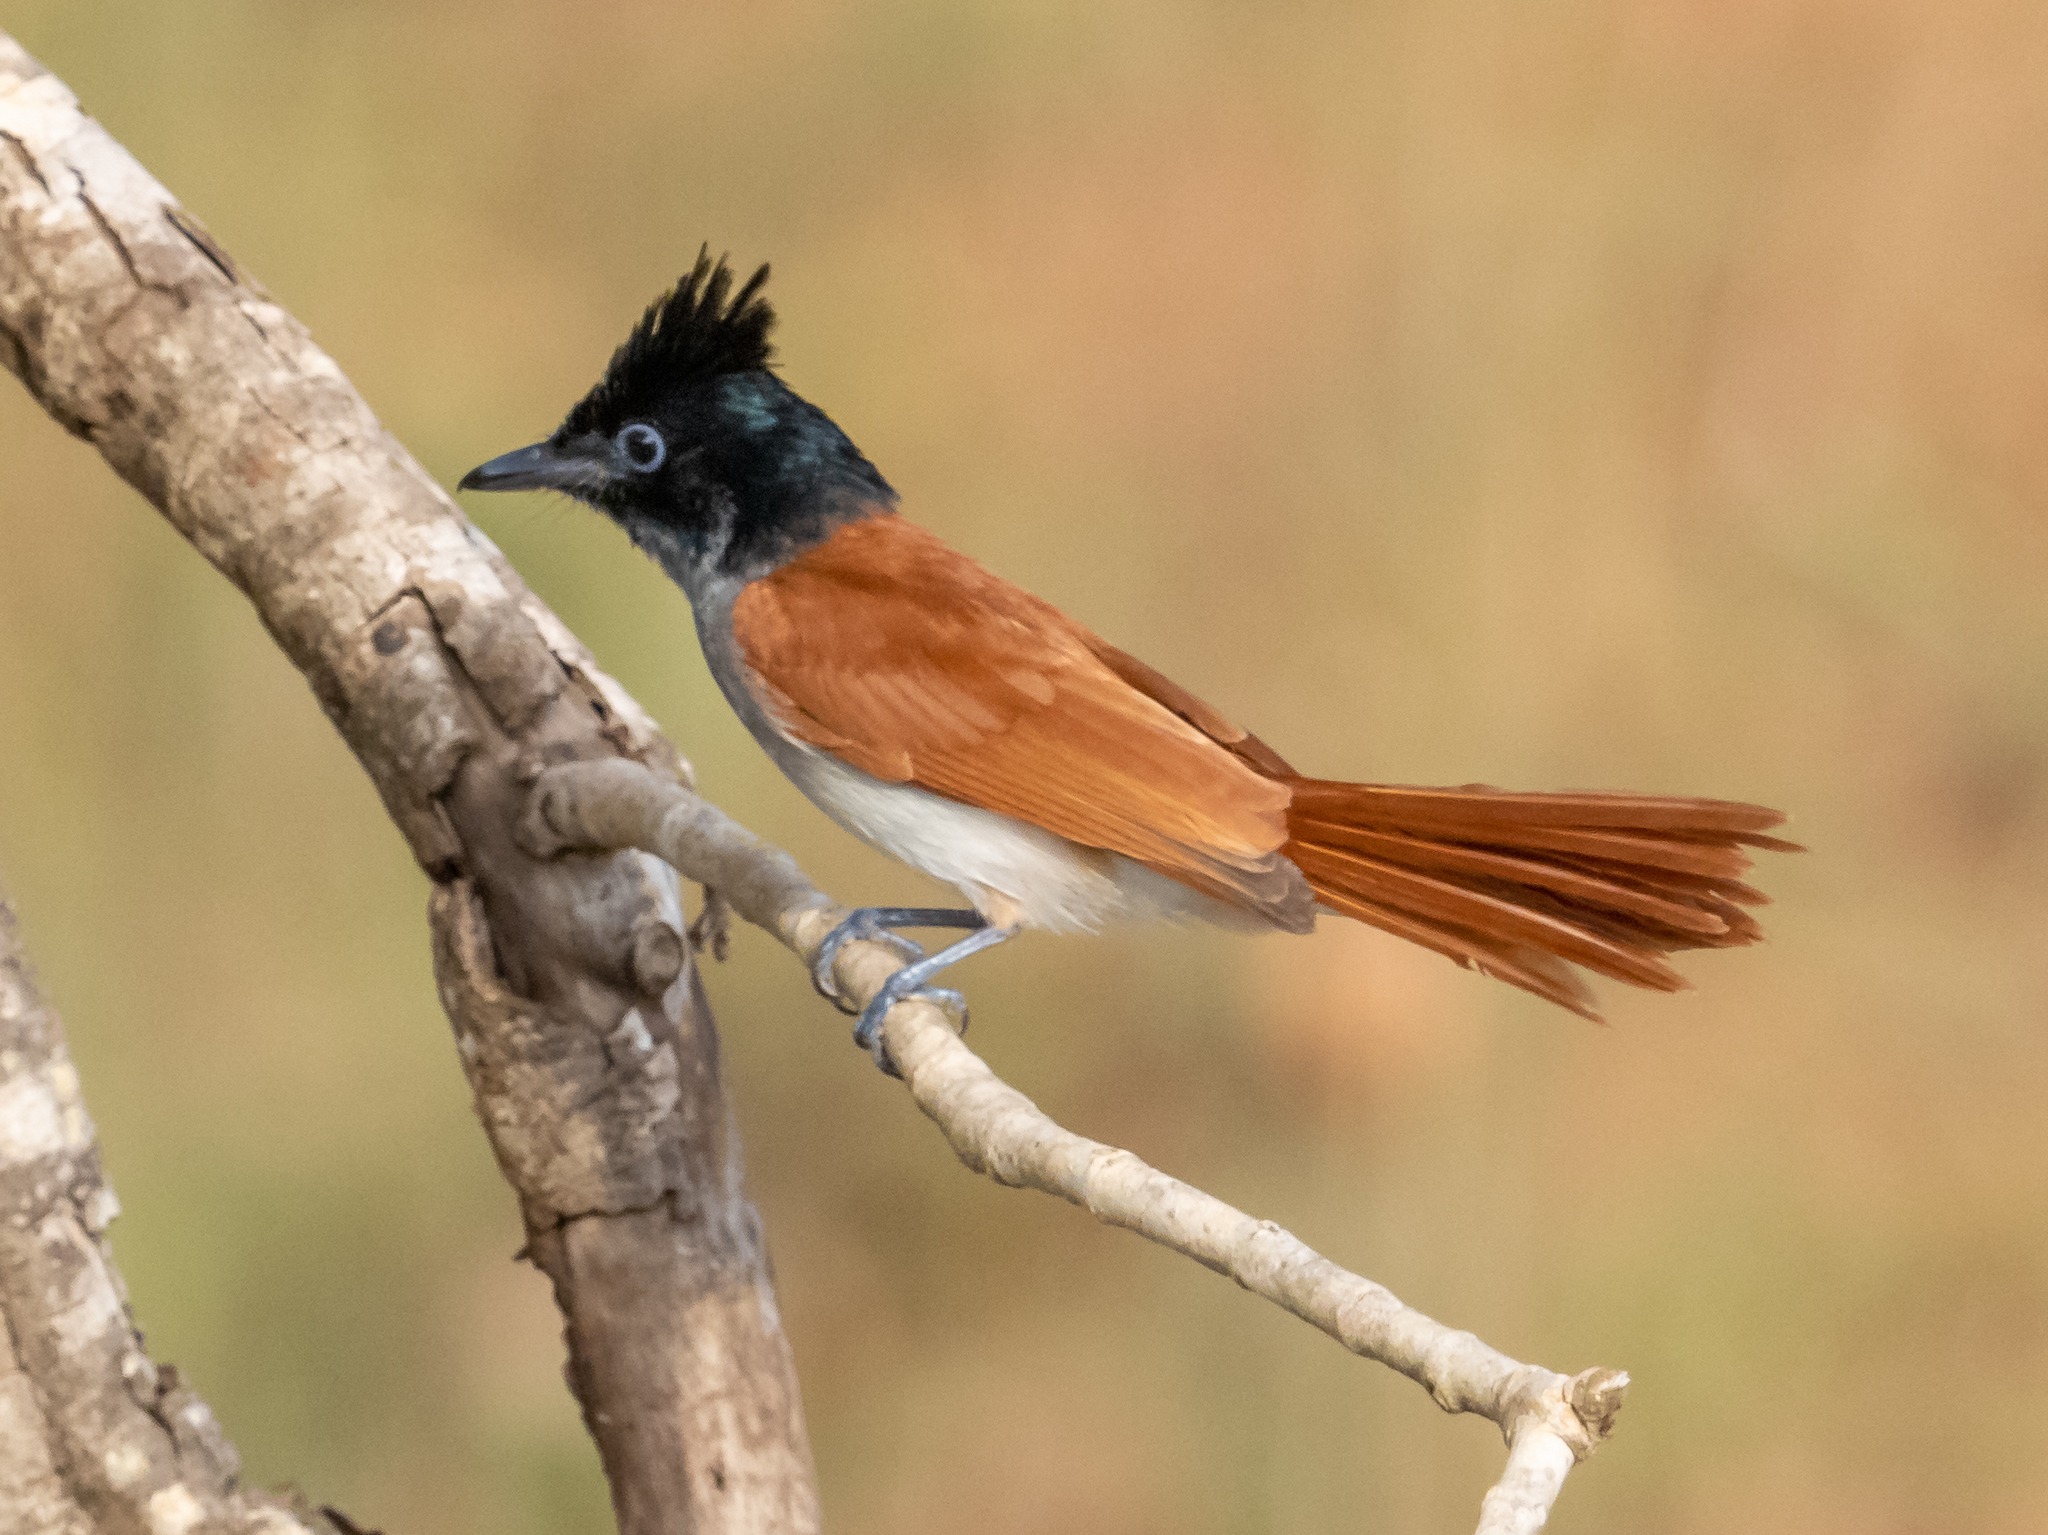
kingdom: Animalia
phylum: Chordata
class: Aves
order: Passeriformes
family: Monarchidae
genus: Terpsiphone
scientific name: Terpsiphone paradisi
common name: Indian paradise flycatcher
